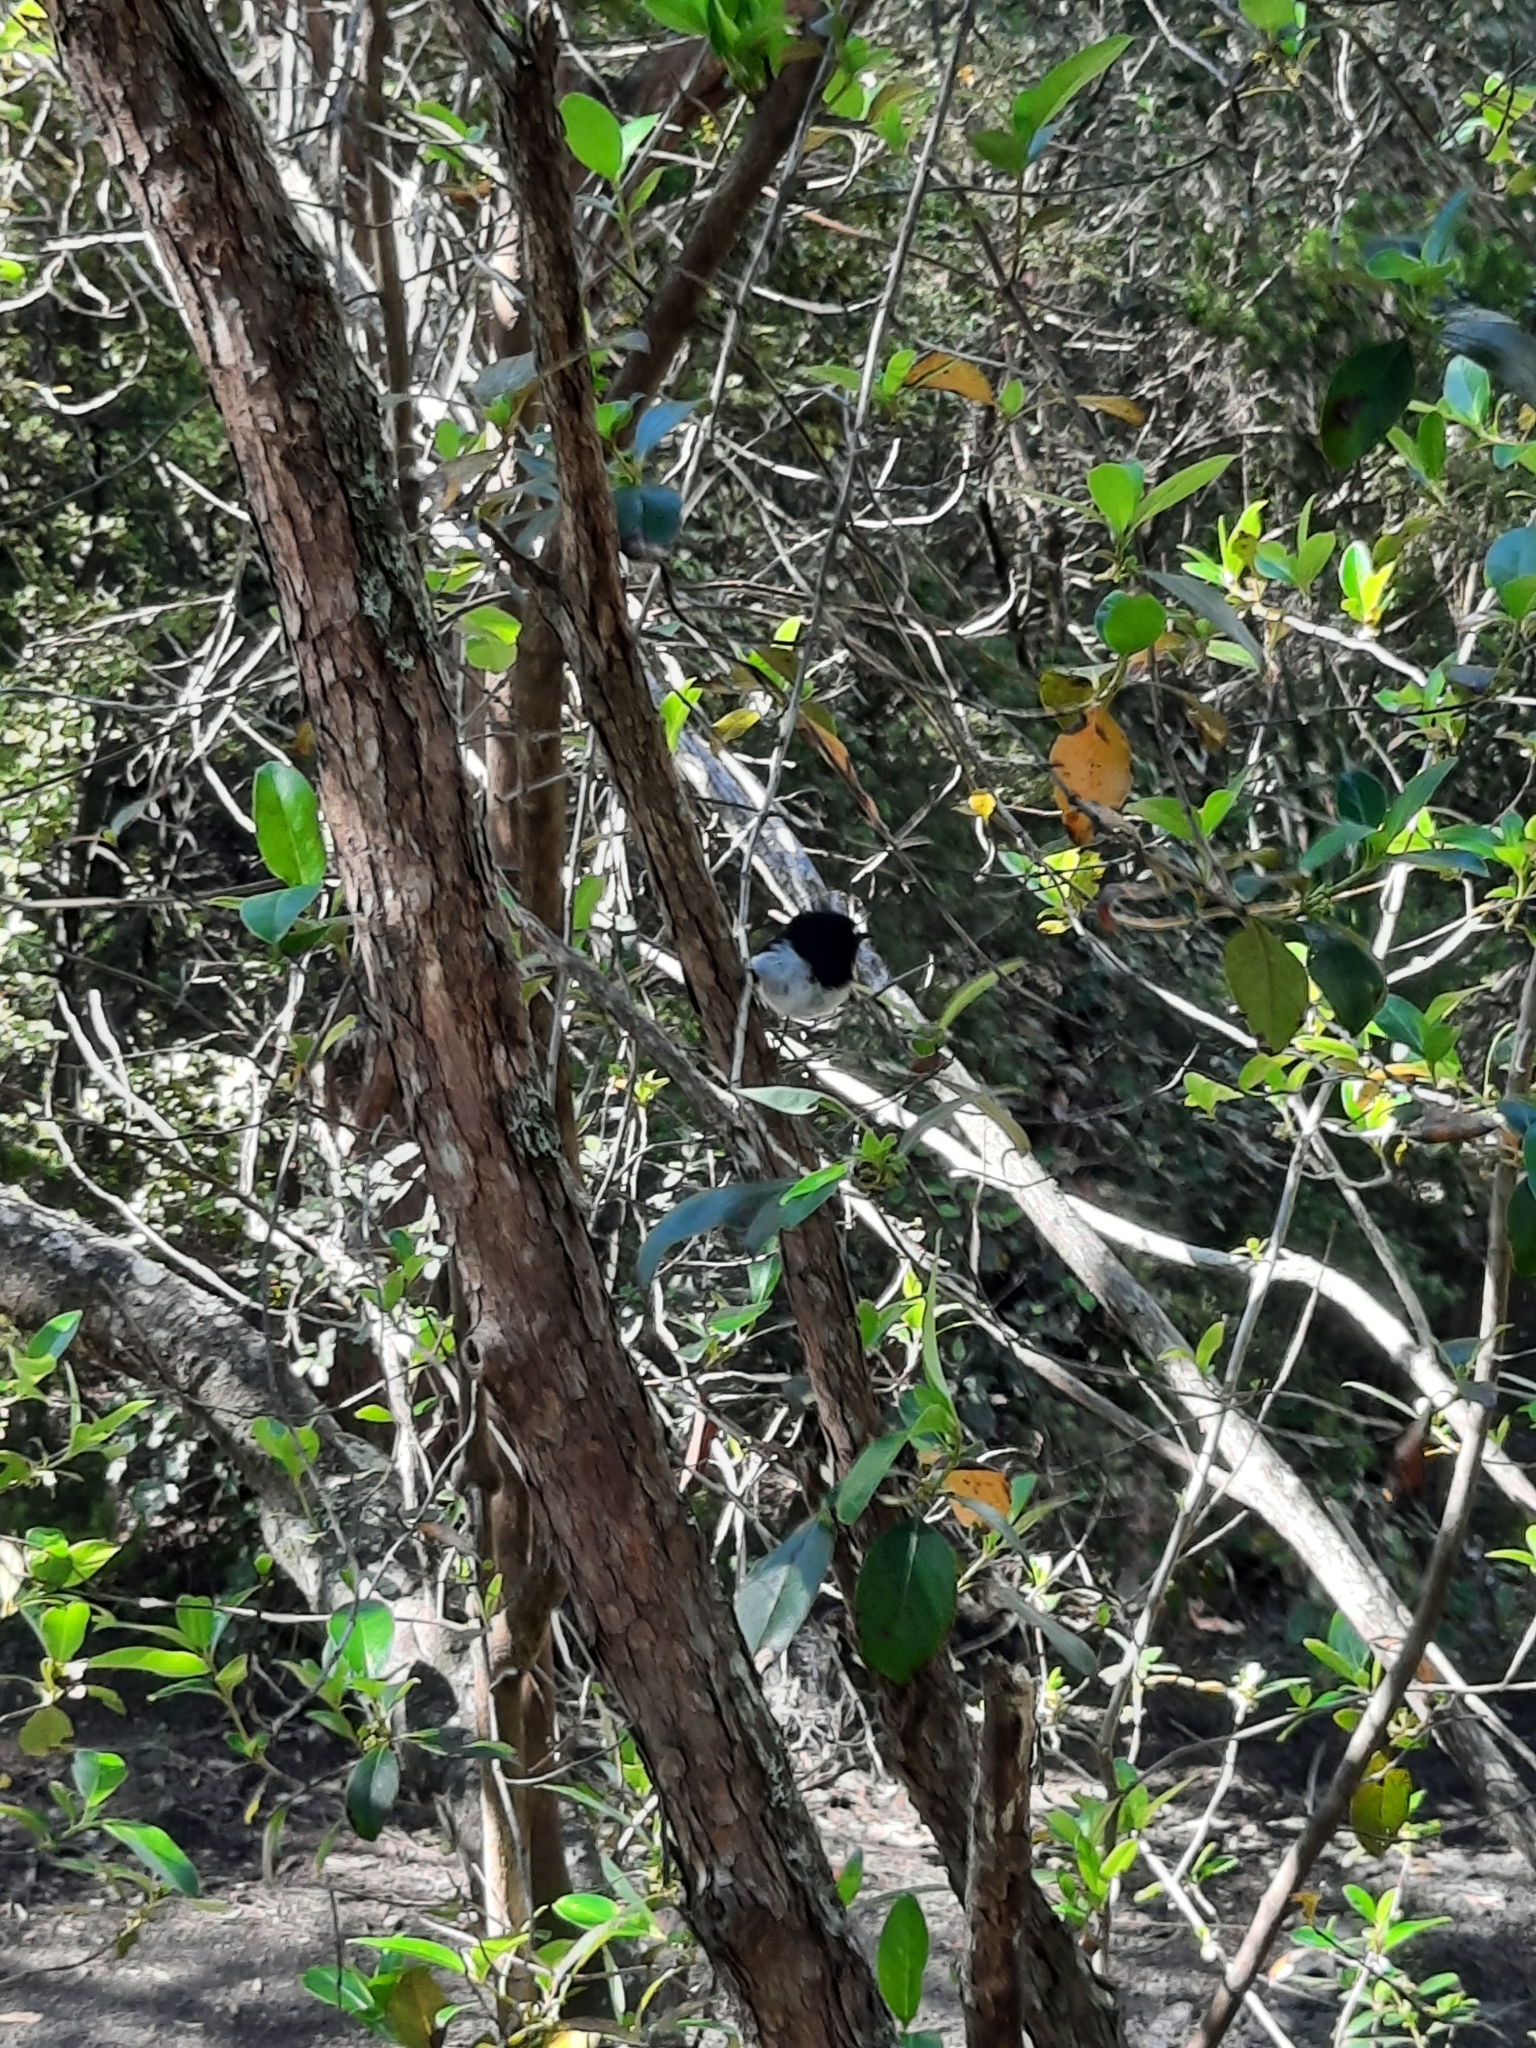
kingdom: Animalia
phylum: Chordata
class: Aves
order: Passeriformes
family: Petroicidae
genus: Petroica
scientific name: Petroica macrocephala
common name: Tomtit
